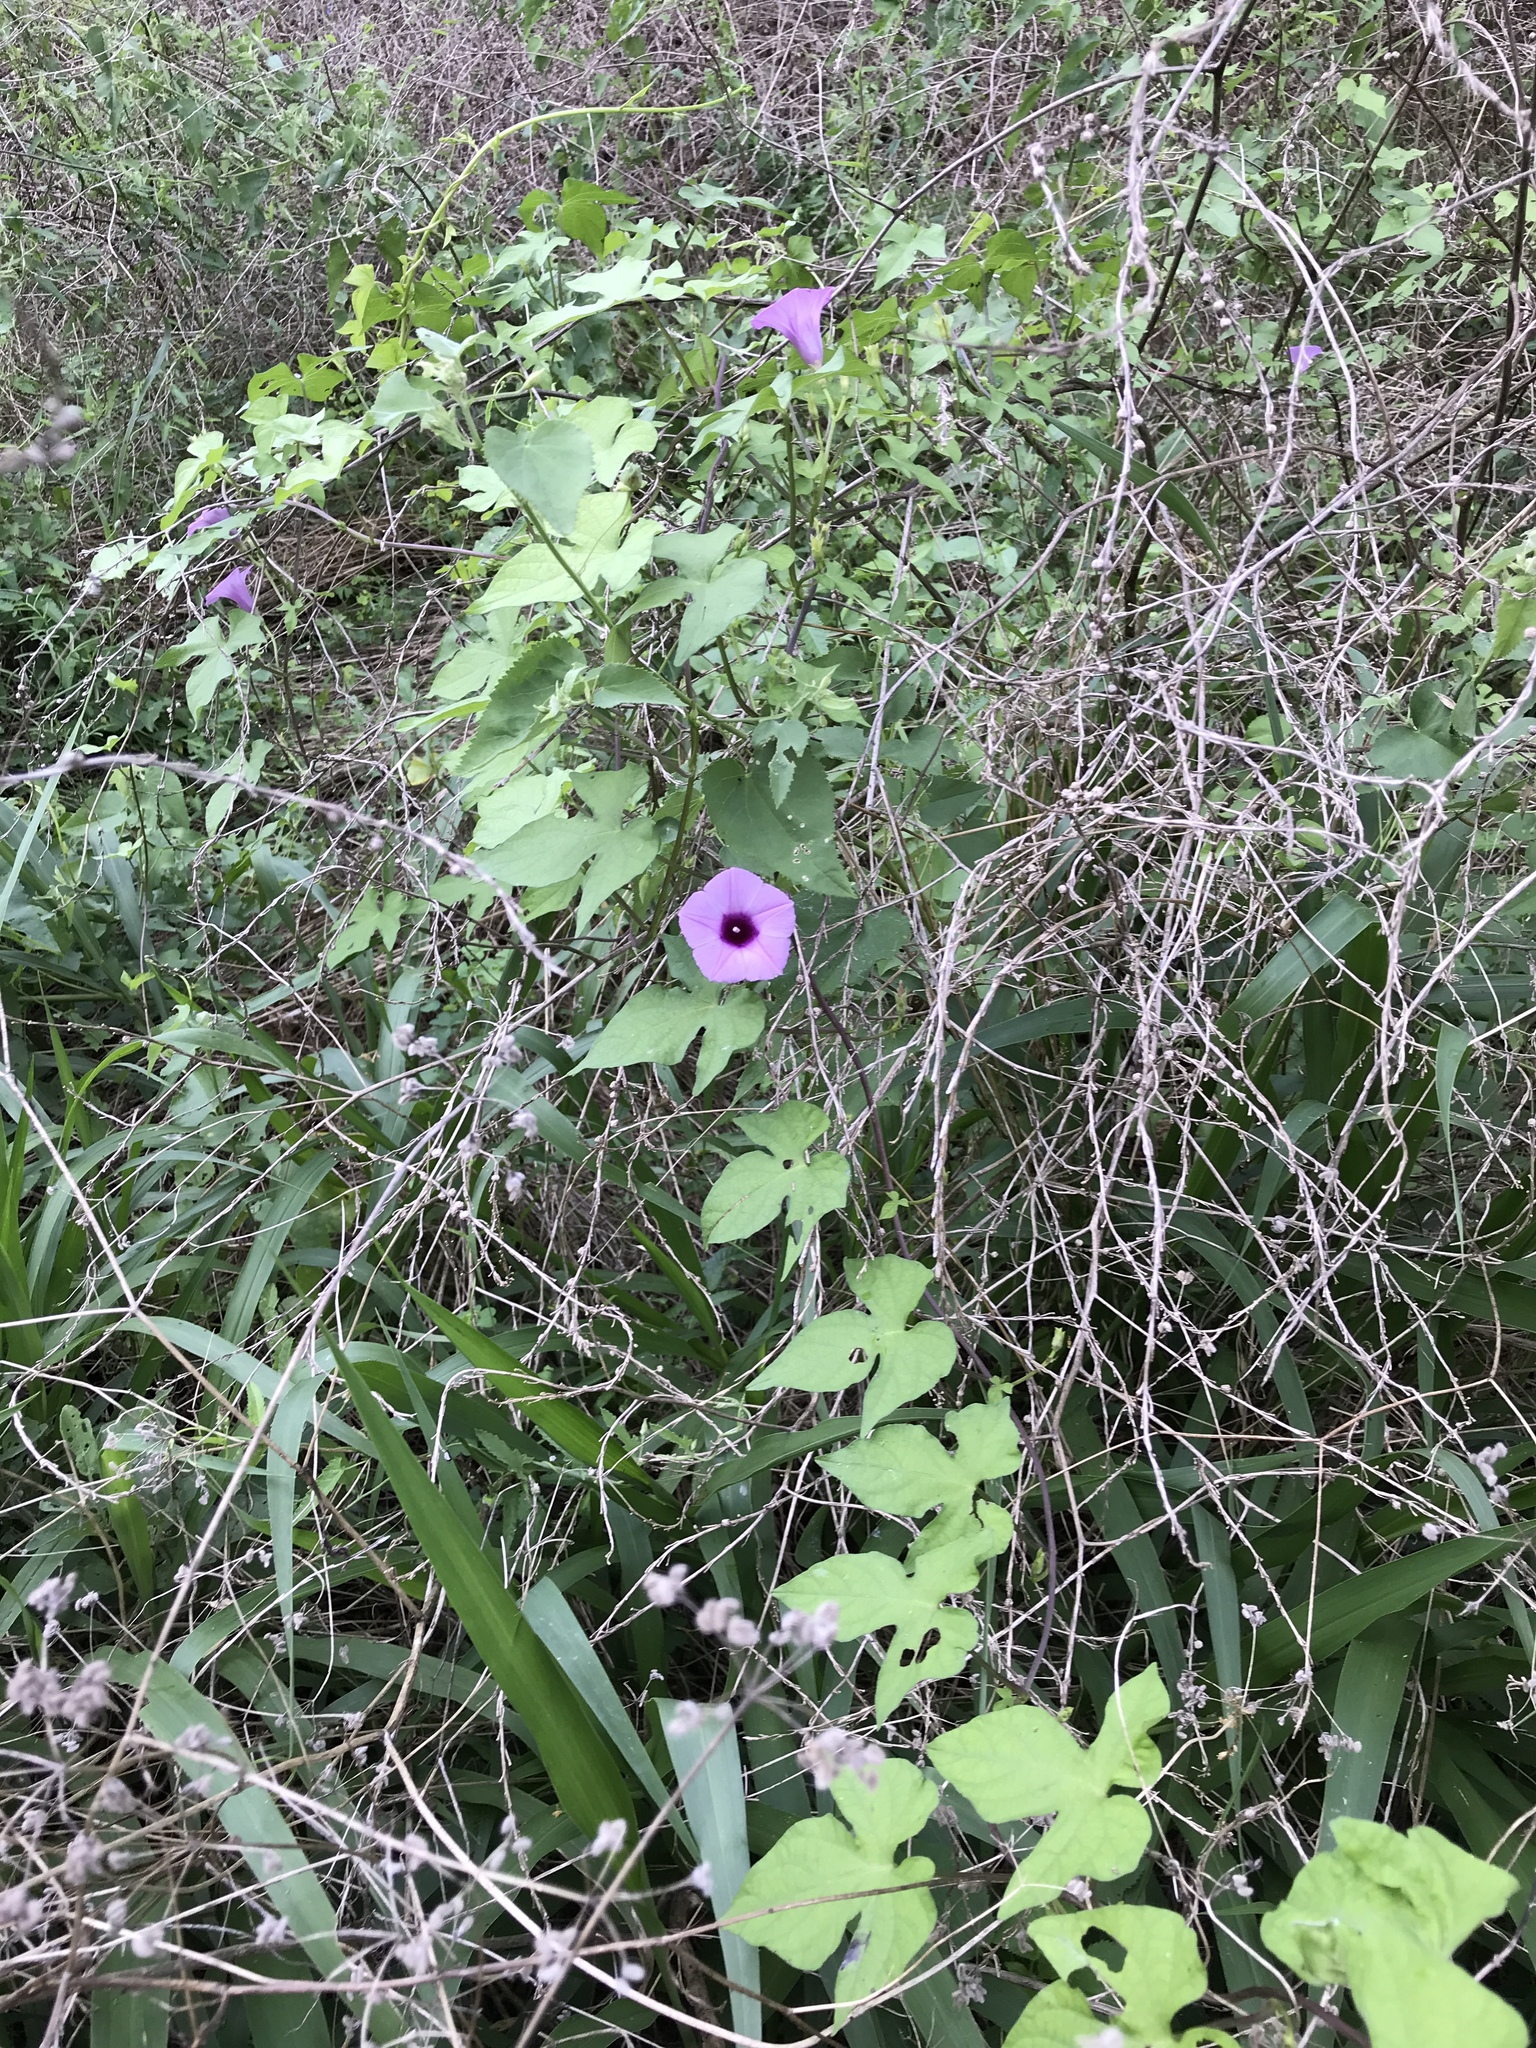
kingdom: Plantae
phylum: Tracheophyta
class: Magnoliopsida
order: Solanales
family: Convolvulaceae
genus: Ipomoea
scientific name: Ipomoea cordatotriloba
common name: Cotton morning glory
